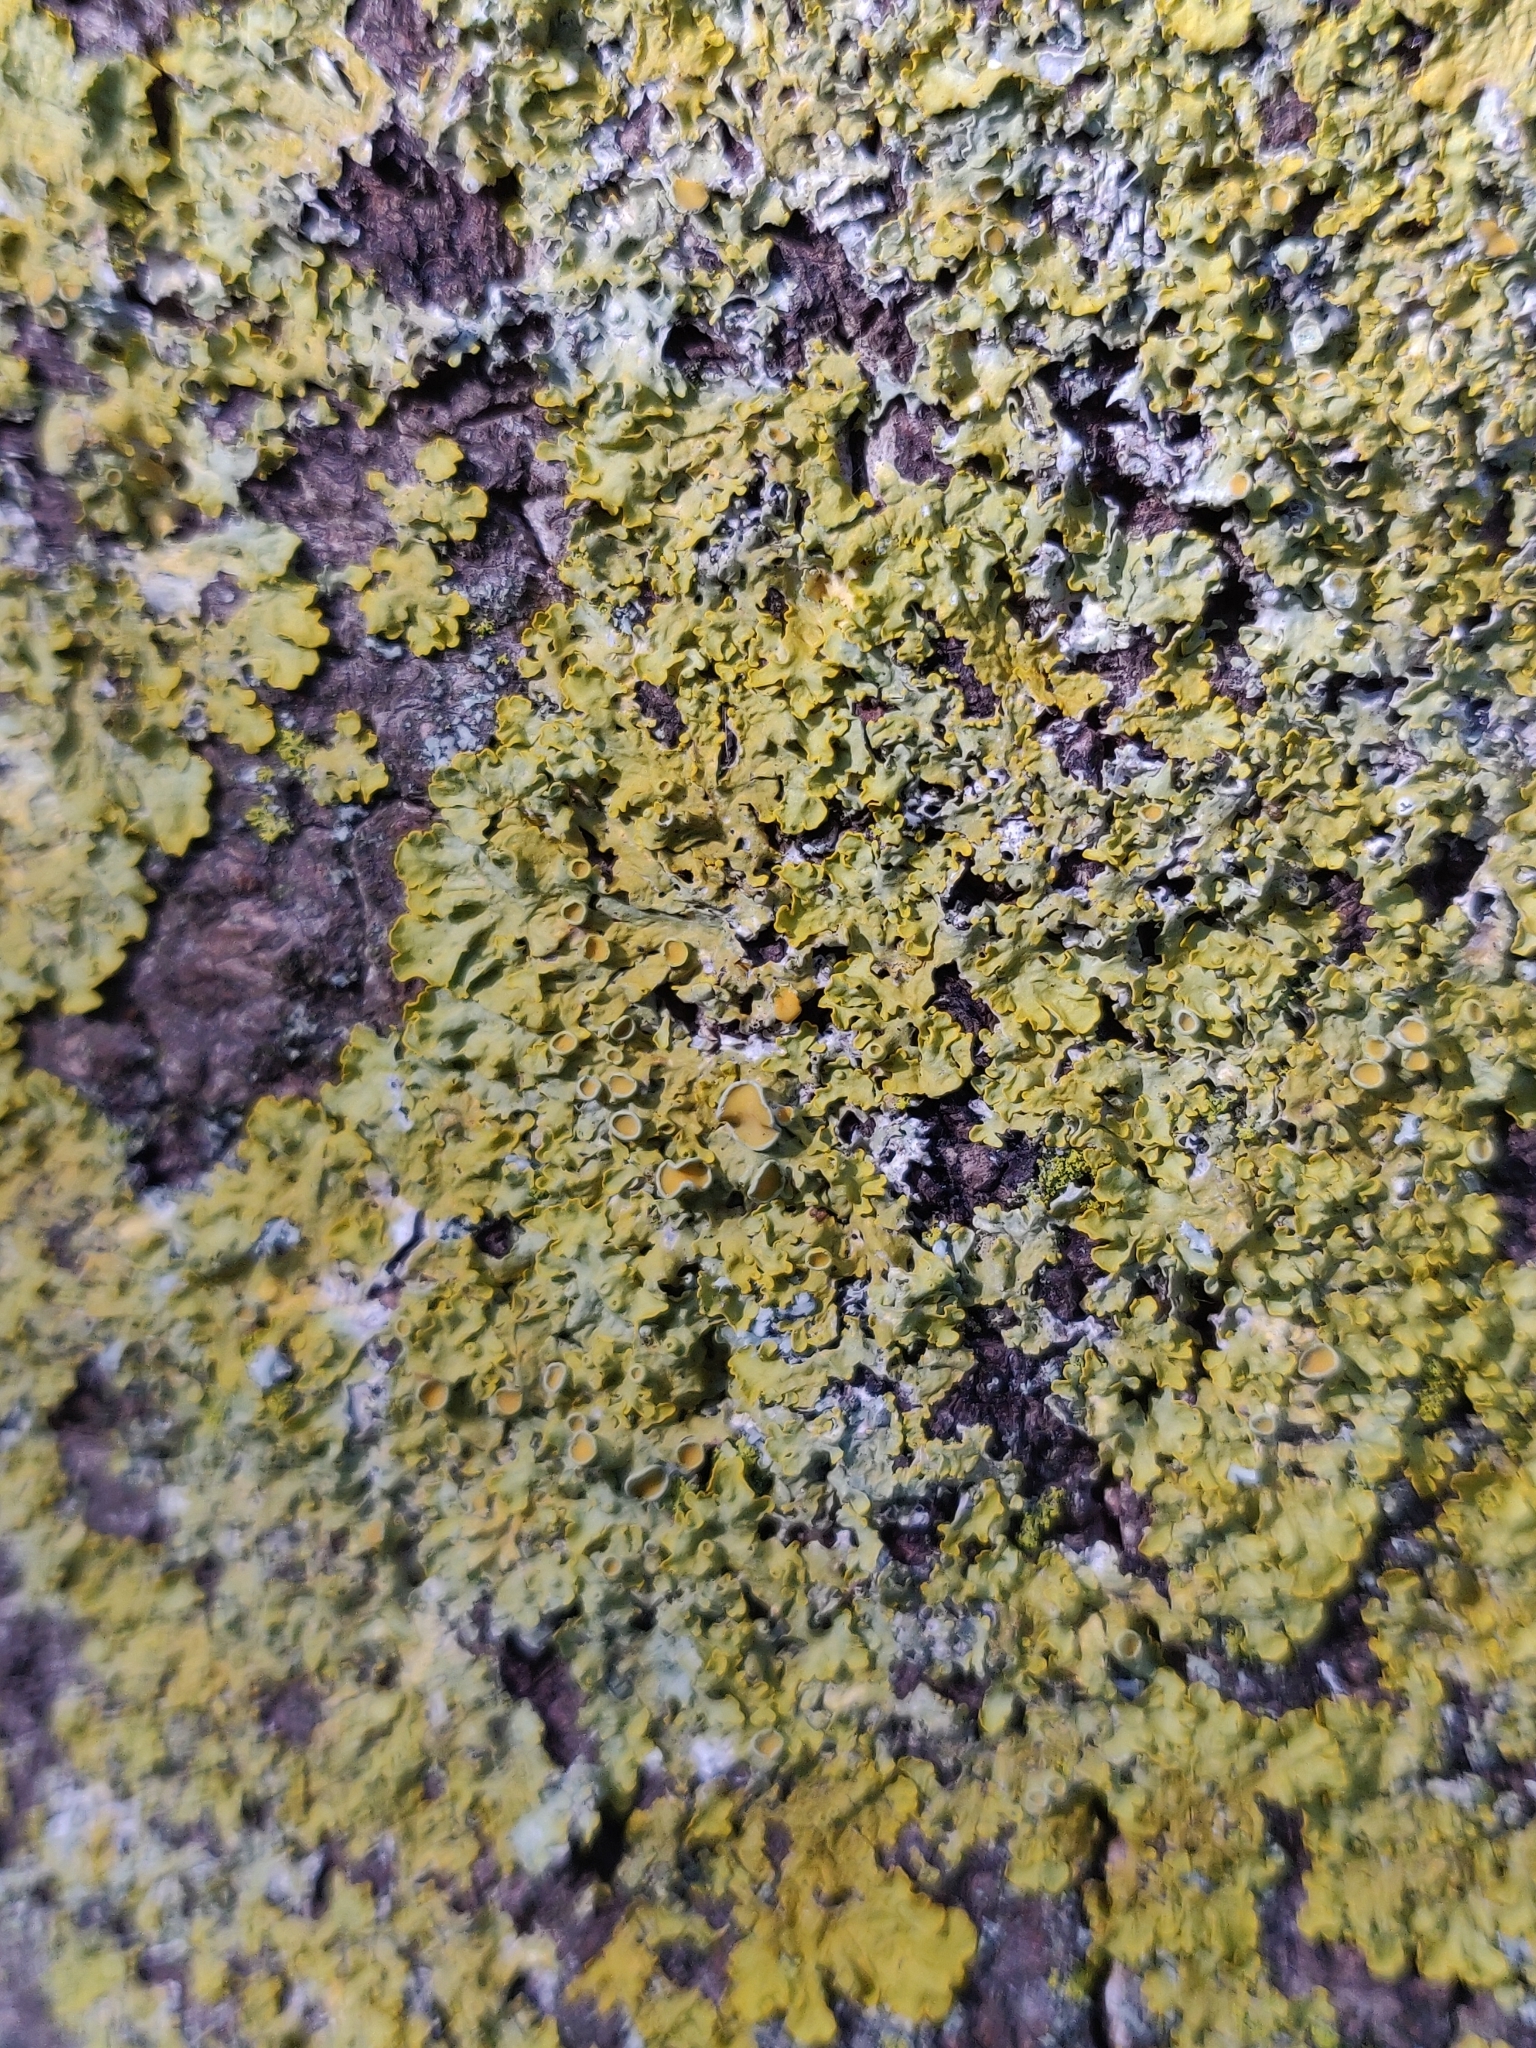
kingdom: Fungi
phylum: Ascomycota
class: Lecanoromycetes
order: Teloschistales
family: Teloschistaceae
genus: Xanthoria
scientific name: Xanthoria parietina
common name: Common orange lichen
